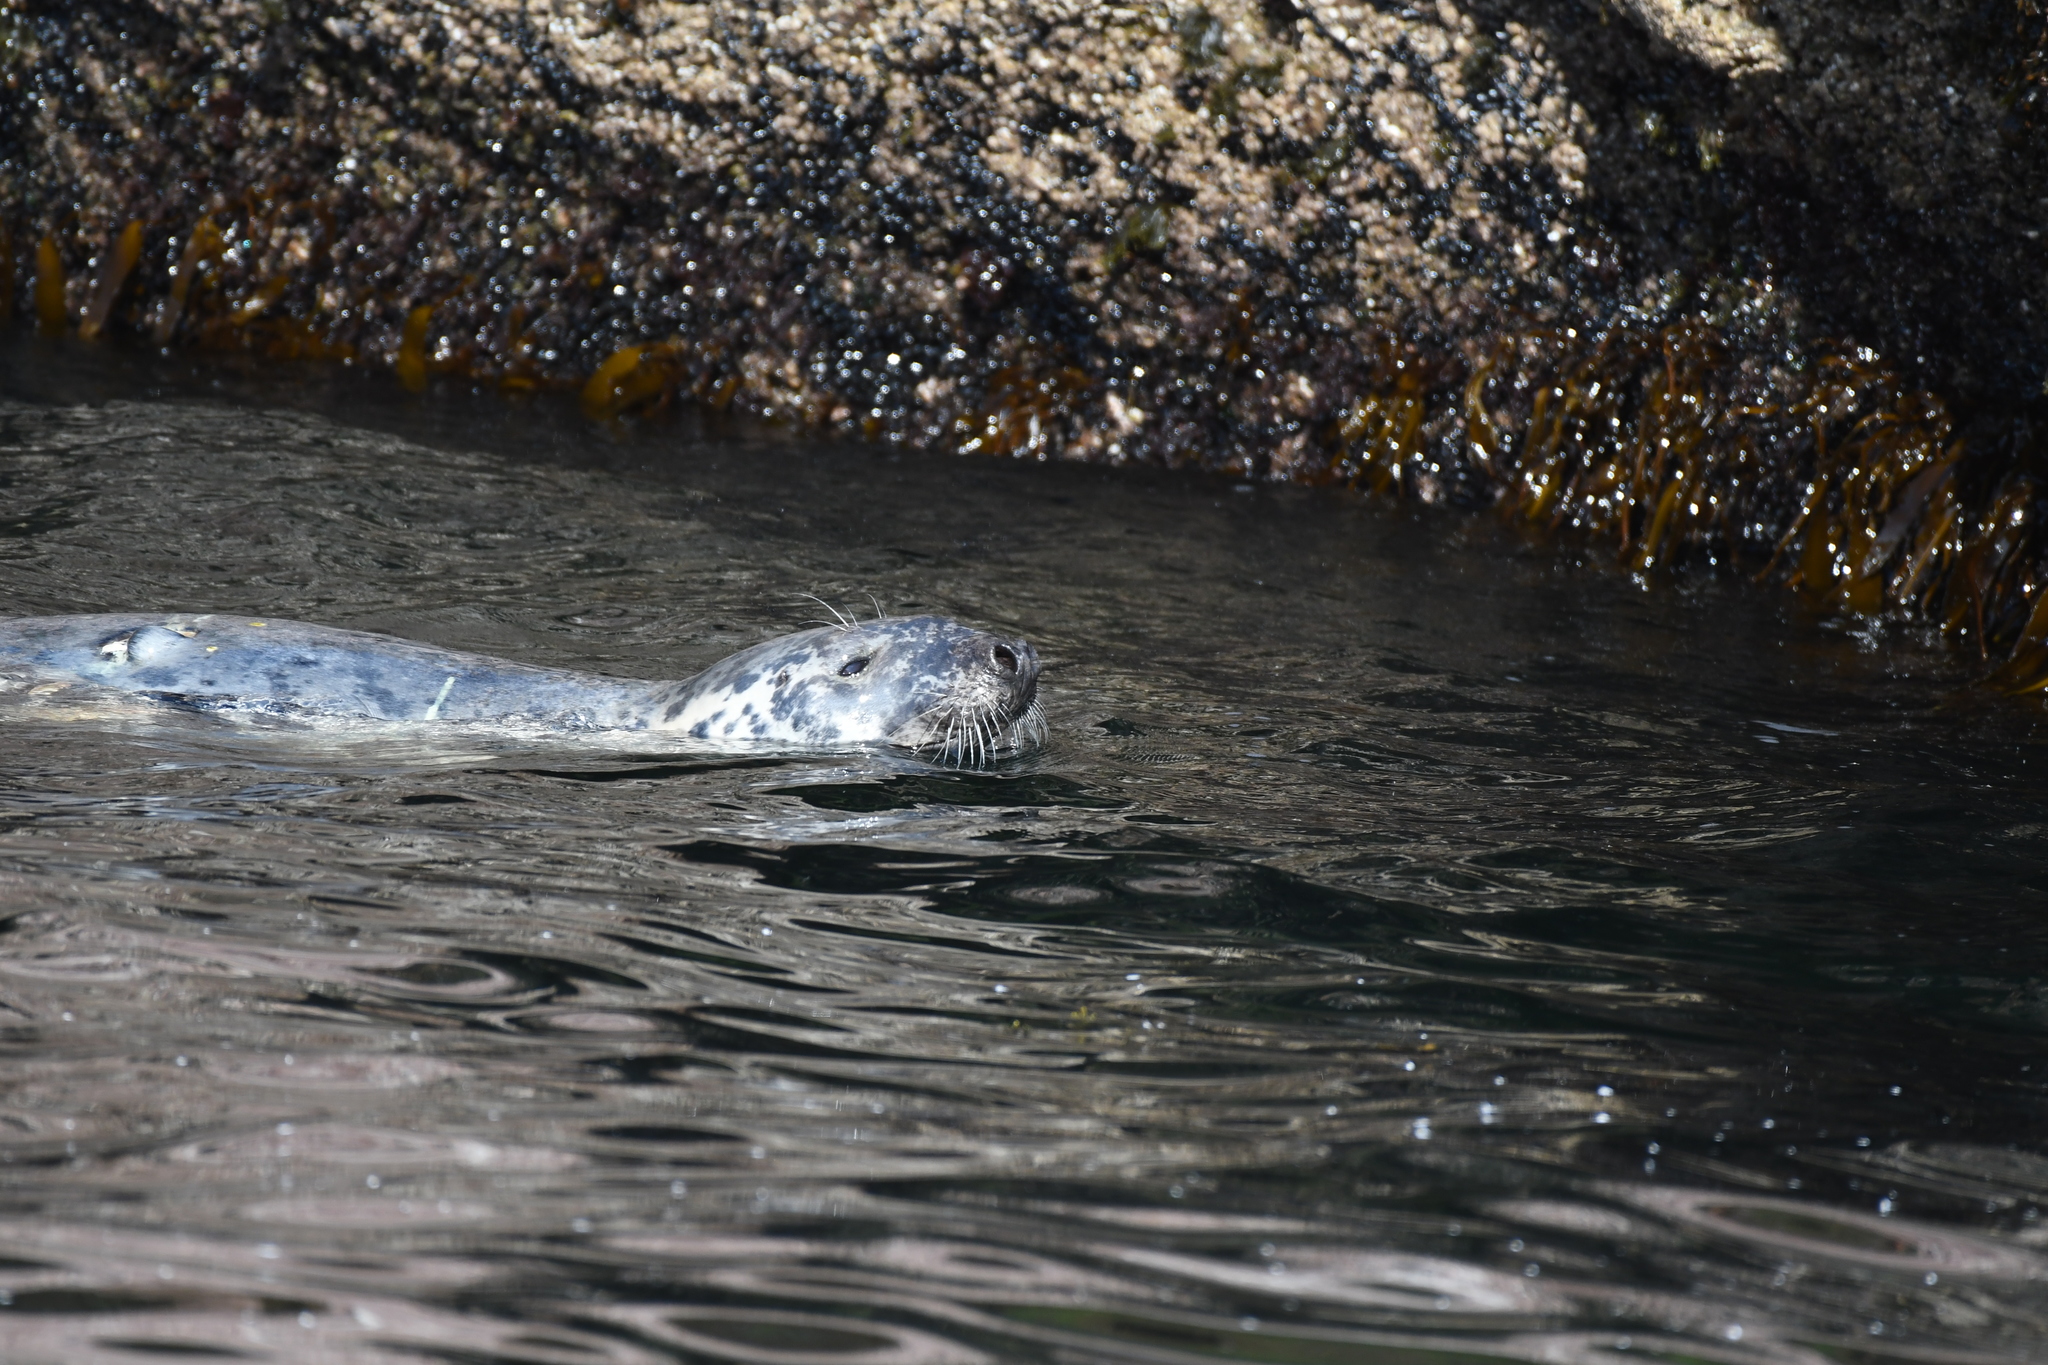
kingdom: Animalia
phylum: Chordata
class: Mammalia
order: Carnivora
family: Phocidae
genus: Halichoerus
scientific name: Halichoerus grypus
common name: Grey seal
